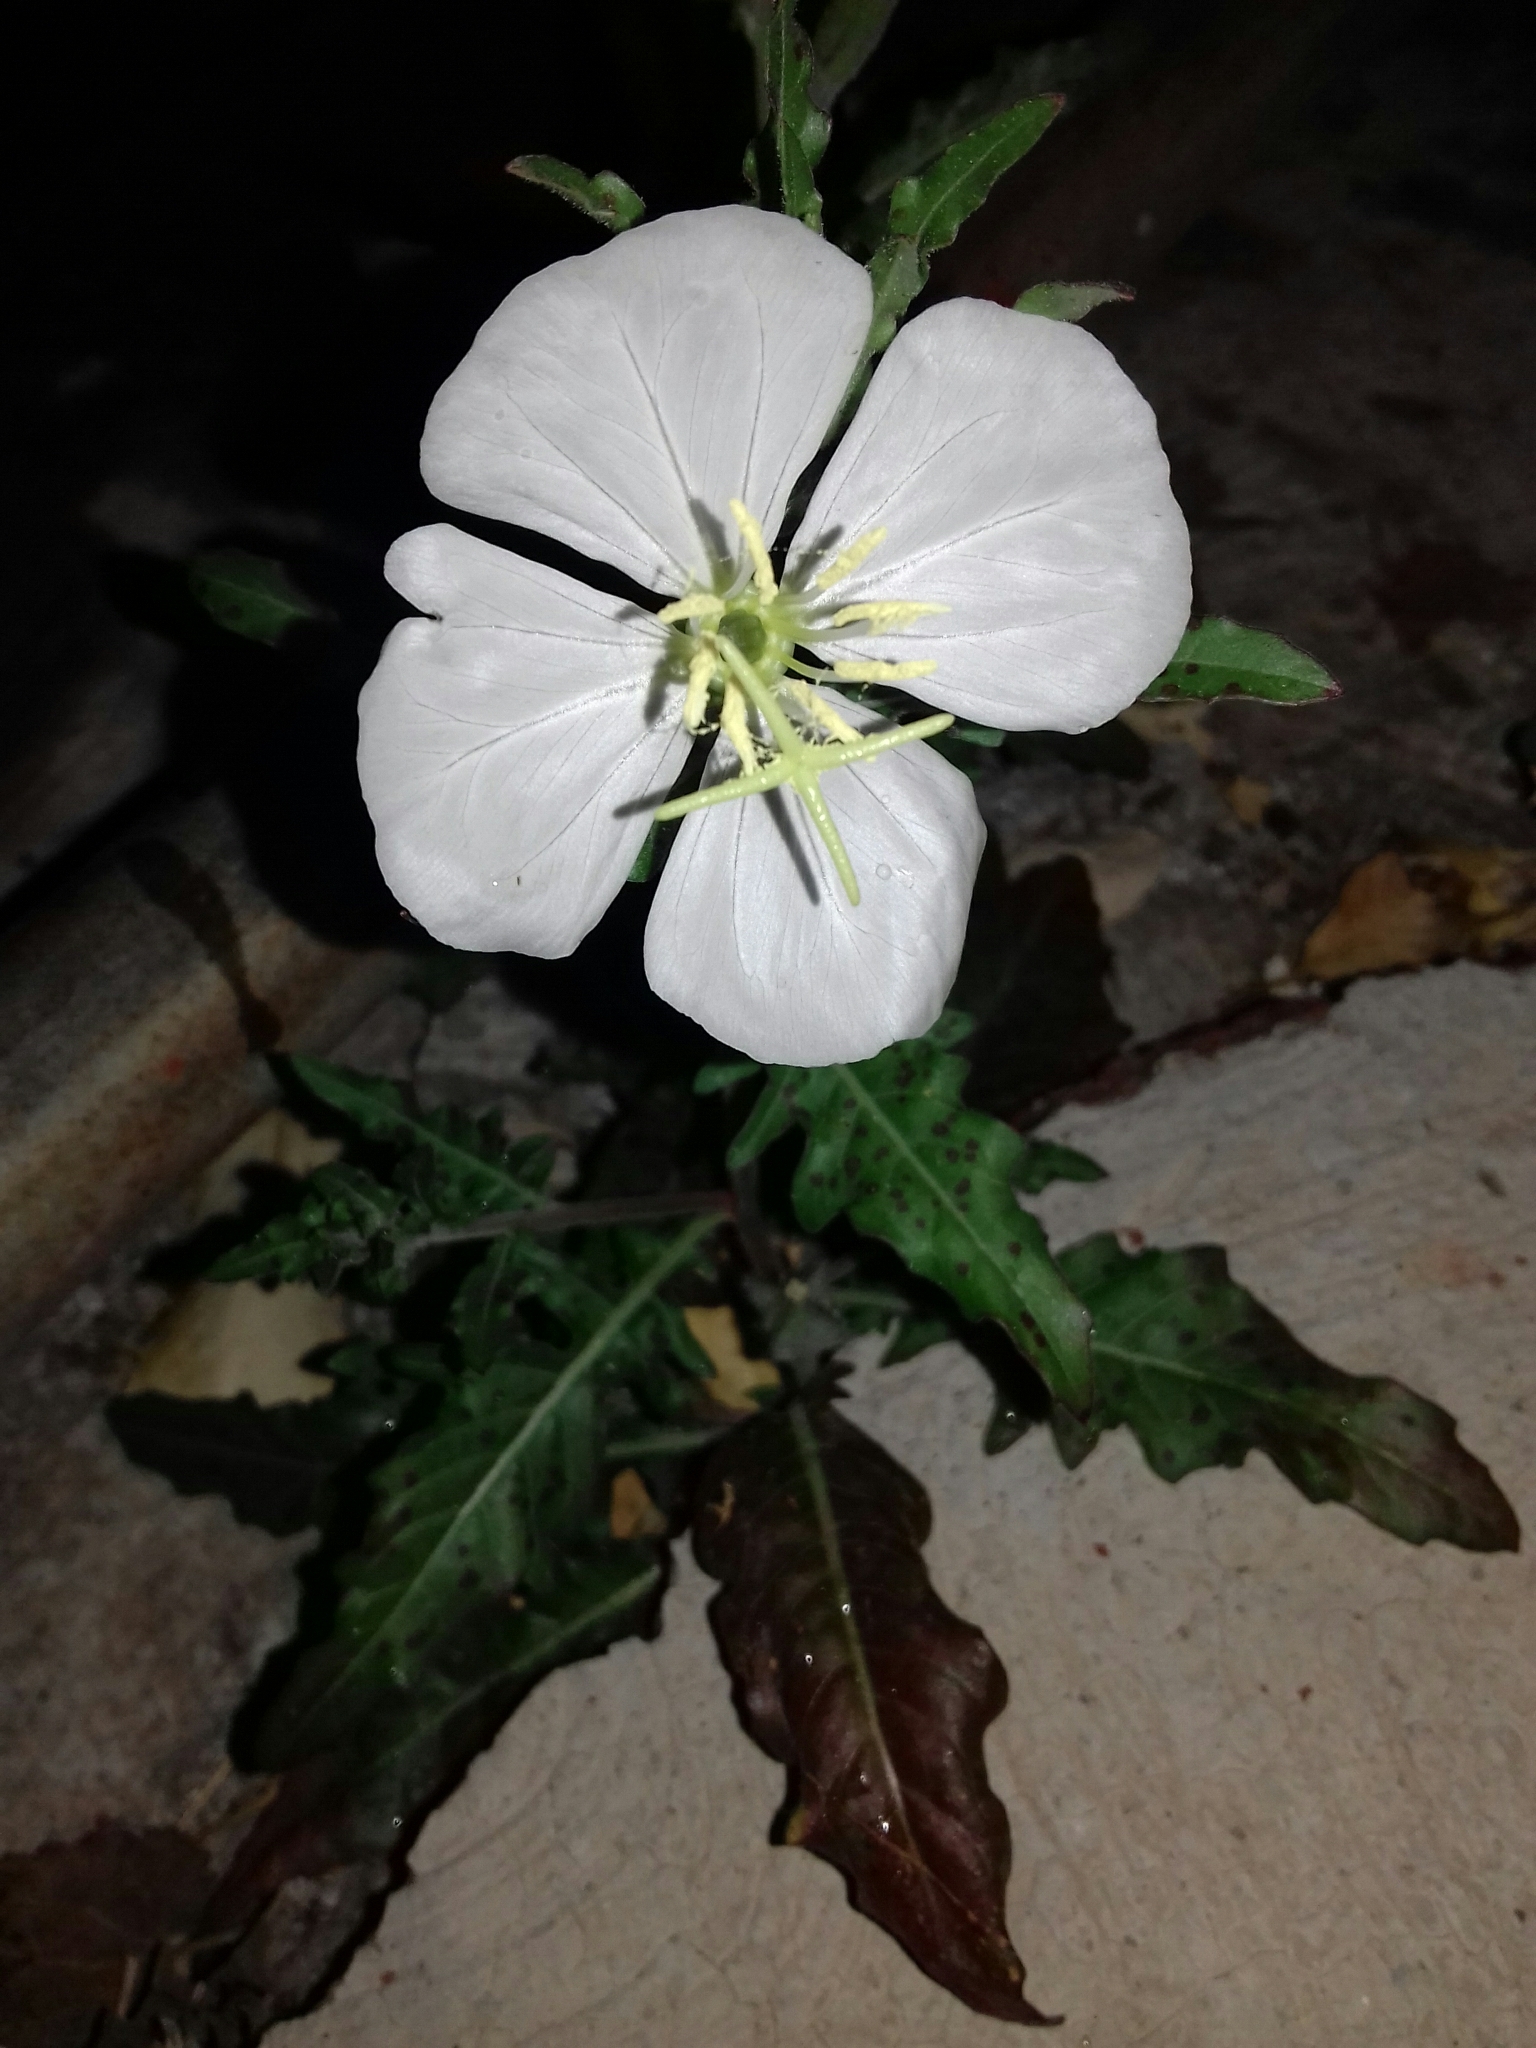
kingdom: Plantae
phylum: Tracheophyta
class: Magnoliopsida
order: Myrtales
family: Onagraceae
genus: Oenothera
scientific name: Oenothera tetraptera
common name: Four-wing evening-primrose
